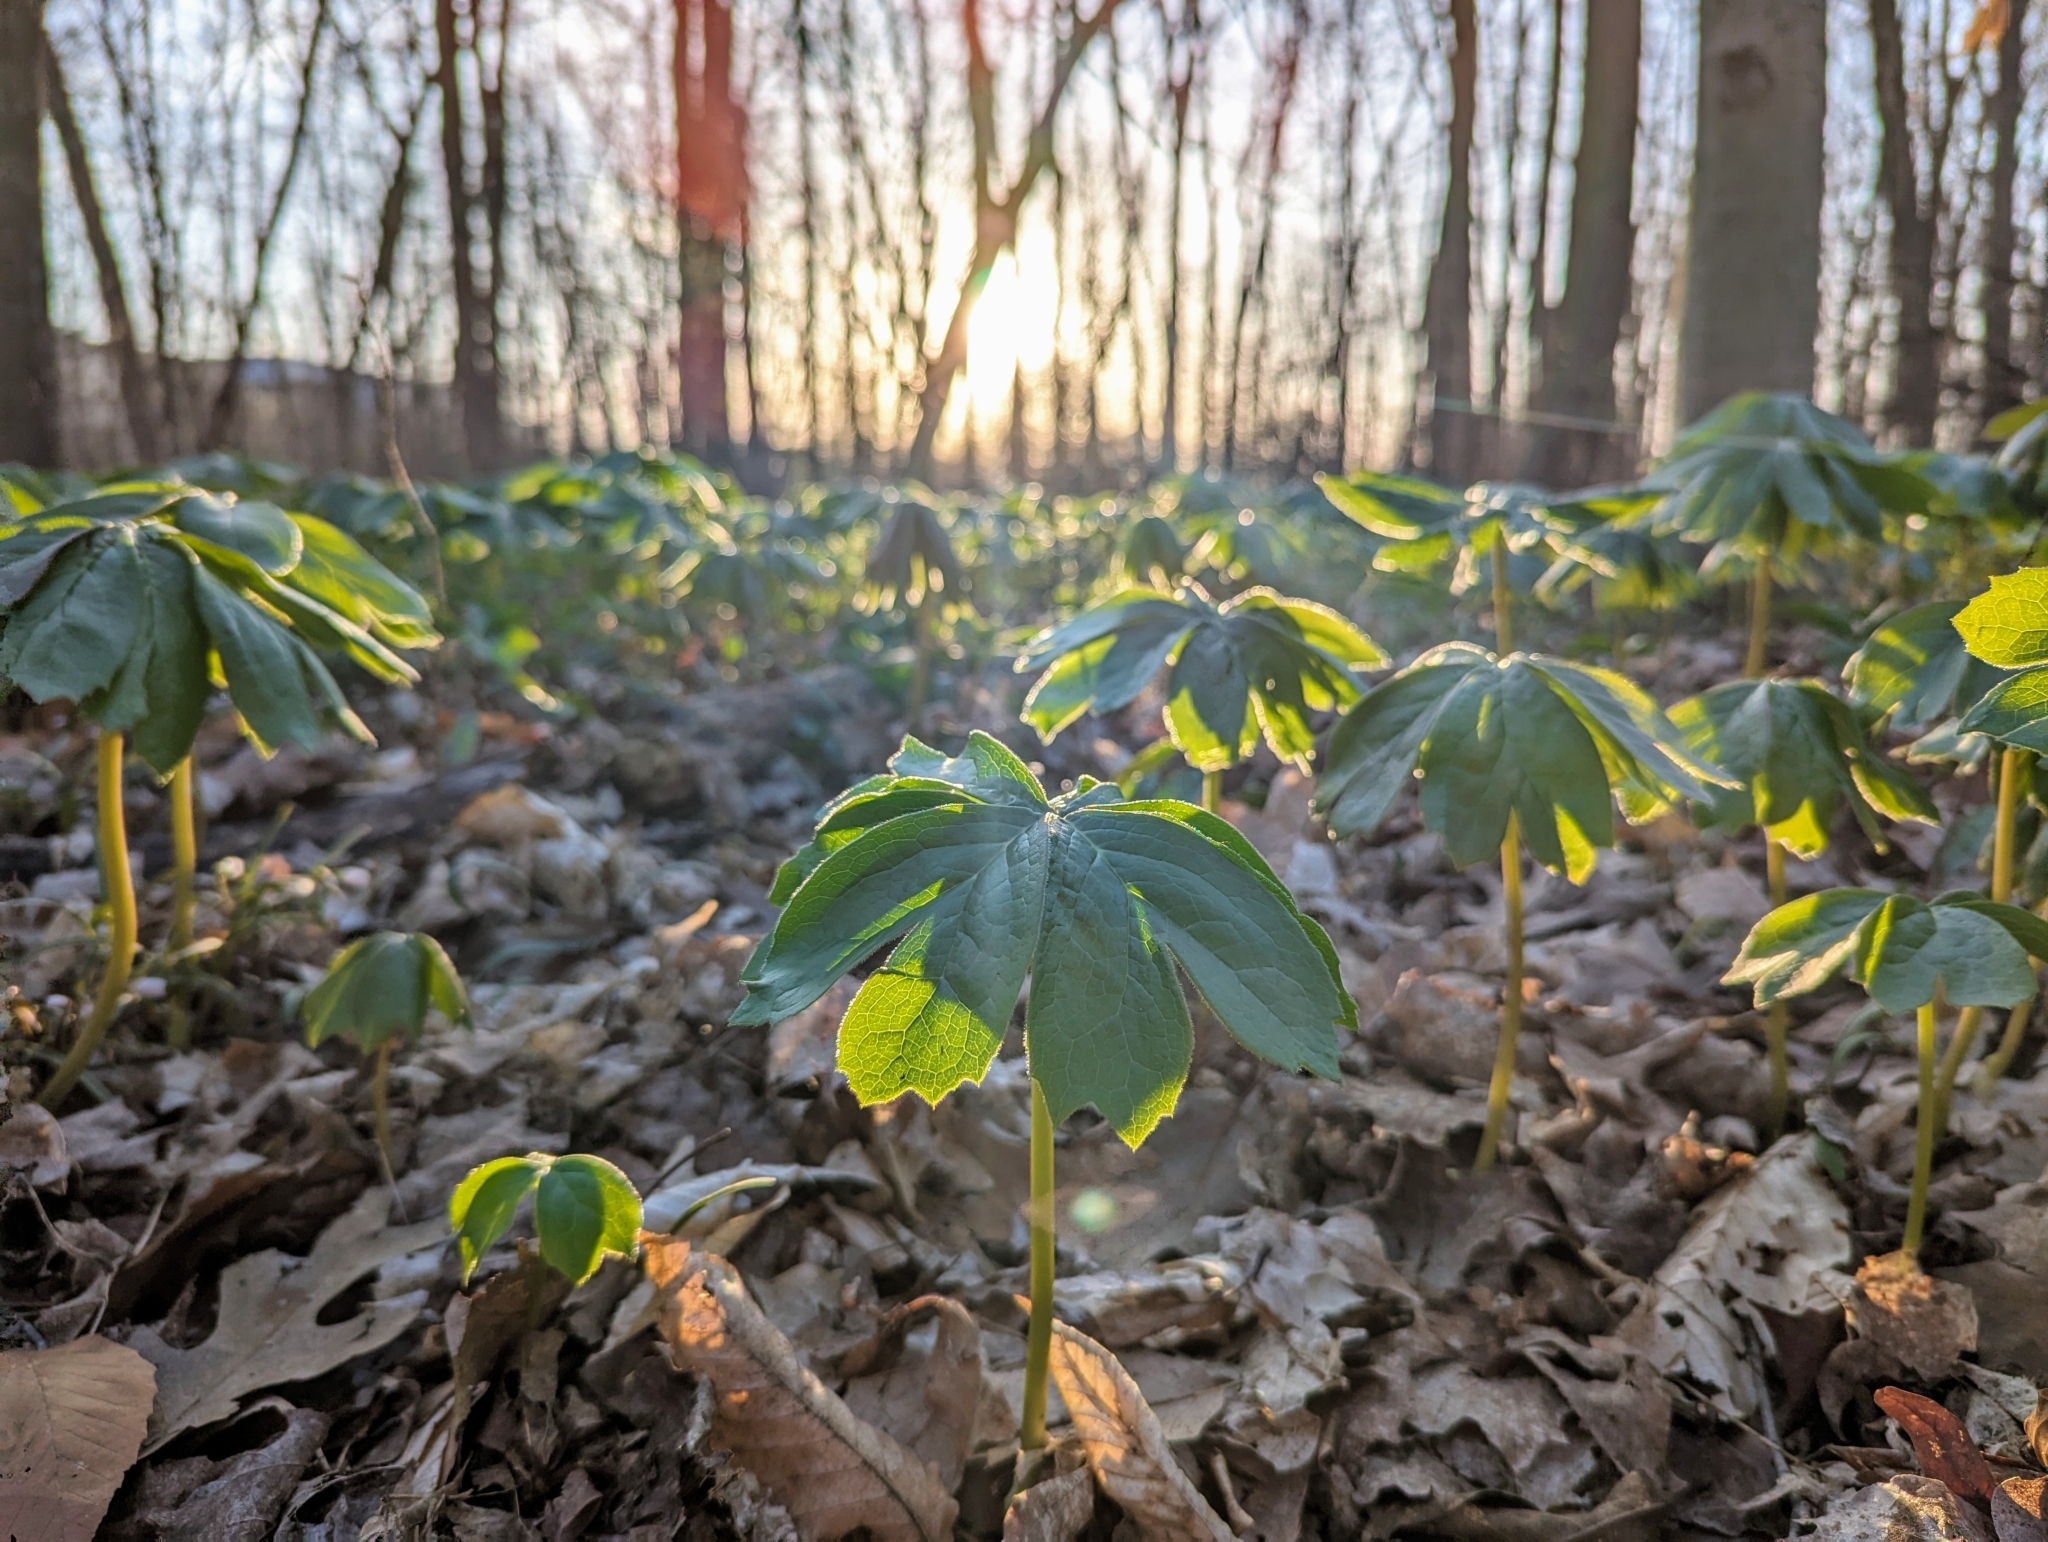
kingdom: Plantae
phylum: Tracheophyta
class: Magnoliopsida
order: Ranunculales
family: Berberidaceae
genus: Podophyllum
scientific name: Podophyllum peltatum
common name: Wild mandrake
